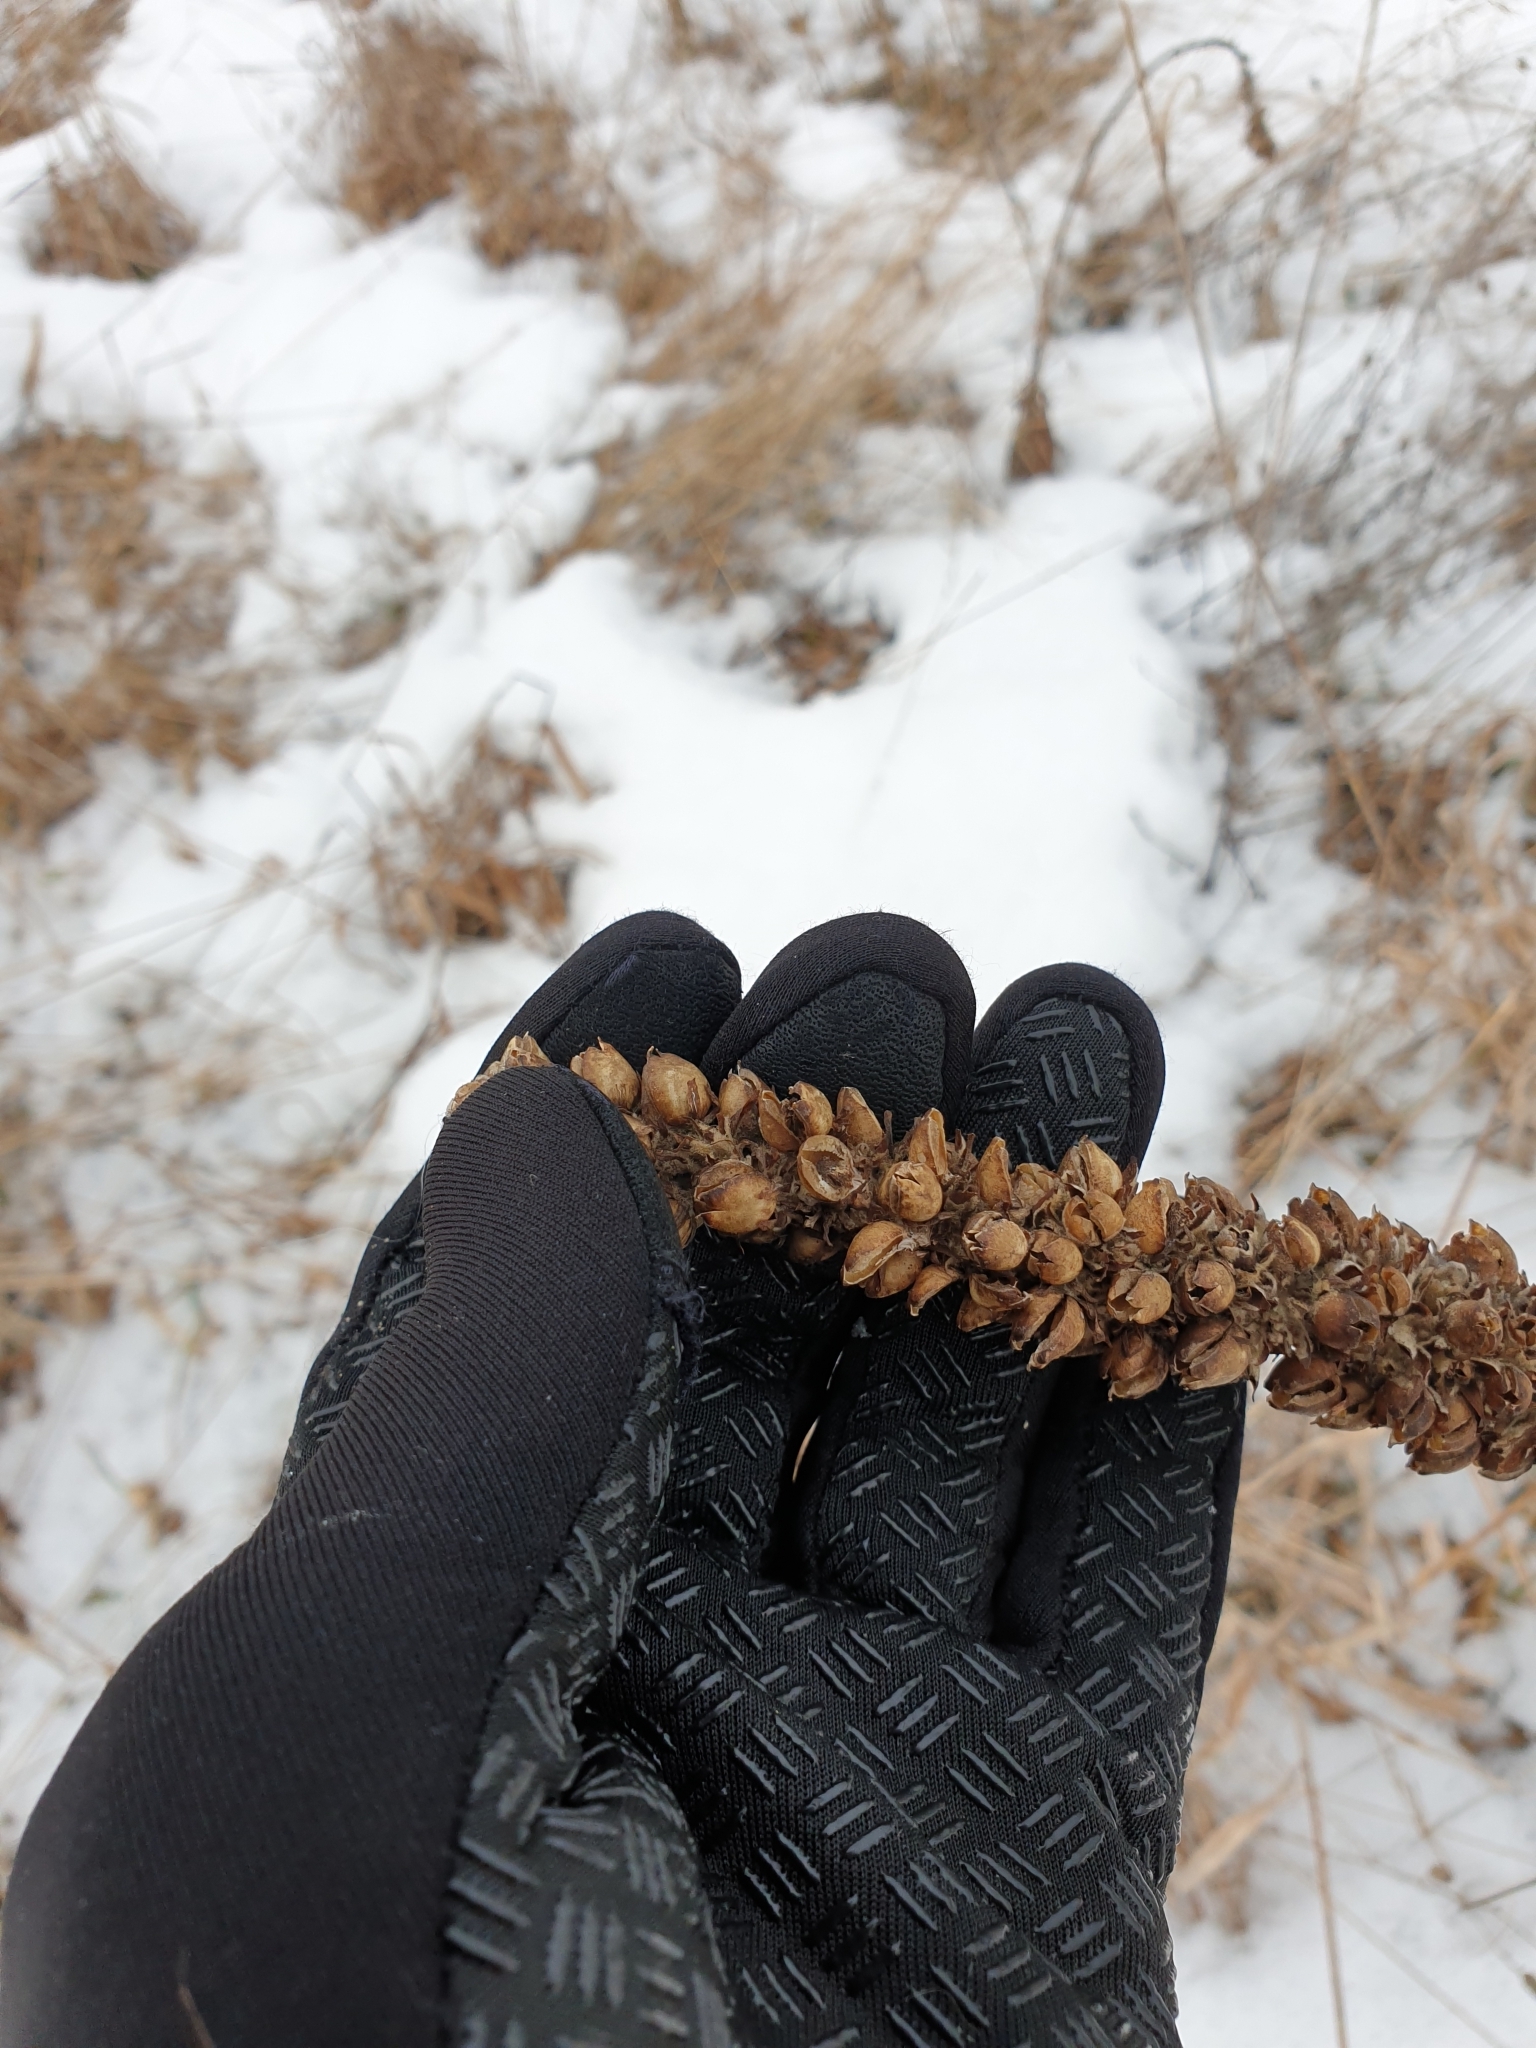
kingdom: Plantae
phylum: Tracheophyta
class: Magnoliopsida
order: Lamiales
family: Scrophulariaceae
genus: Verbascum
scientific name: Verbascum thapsus
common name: Common mullein
